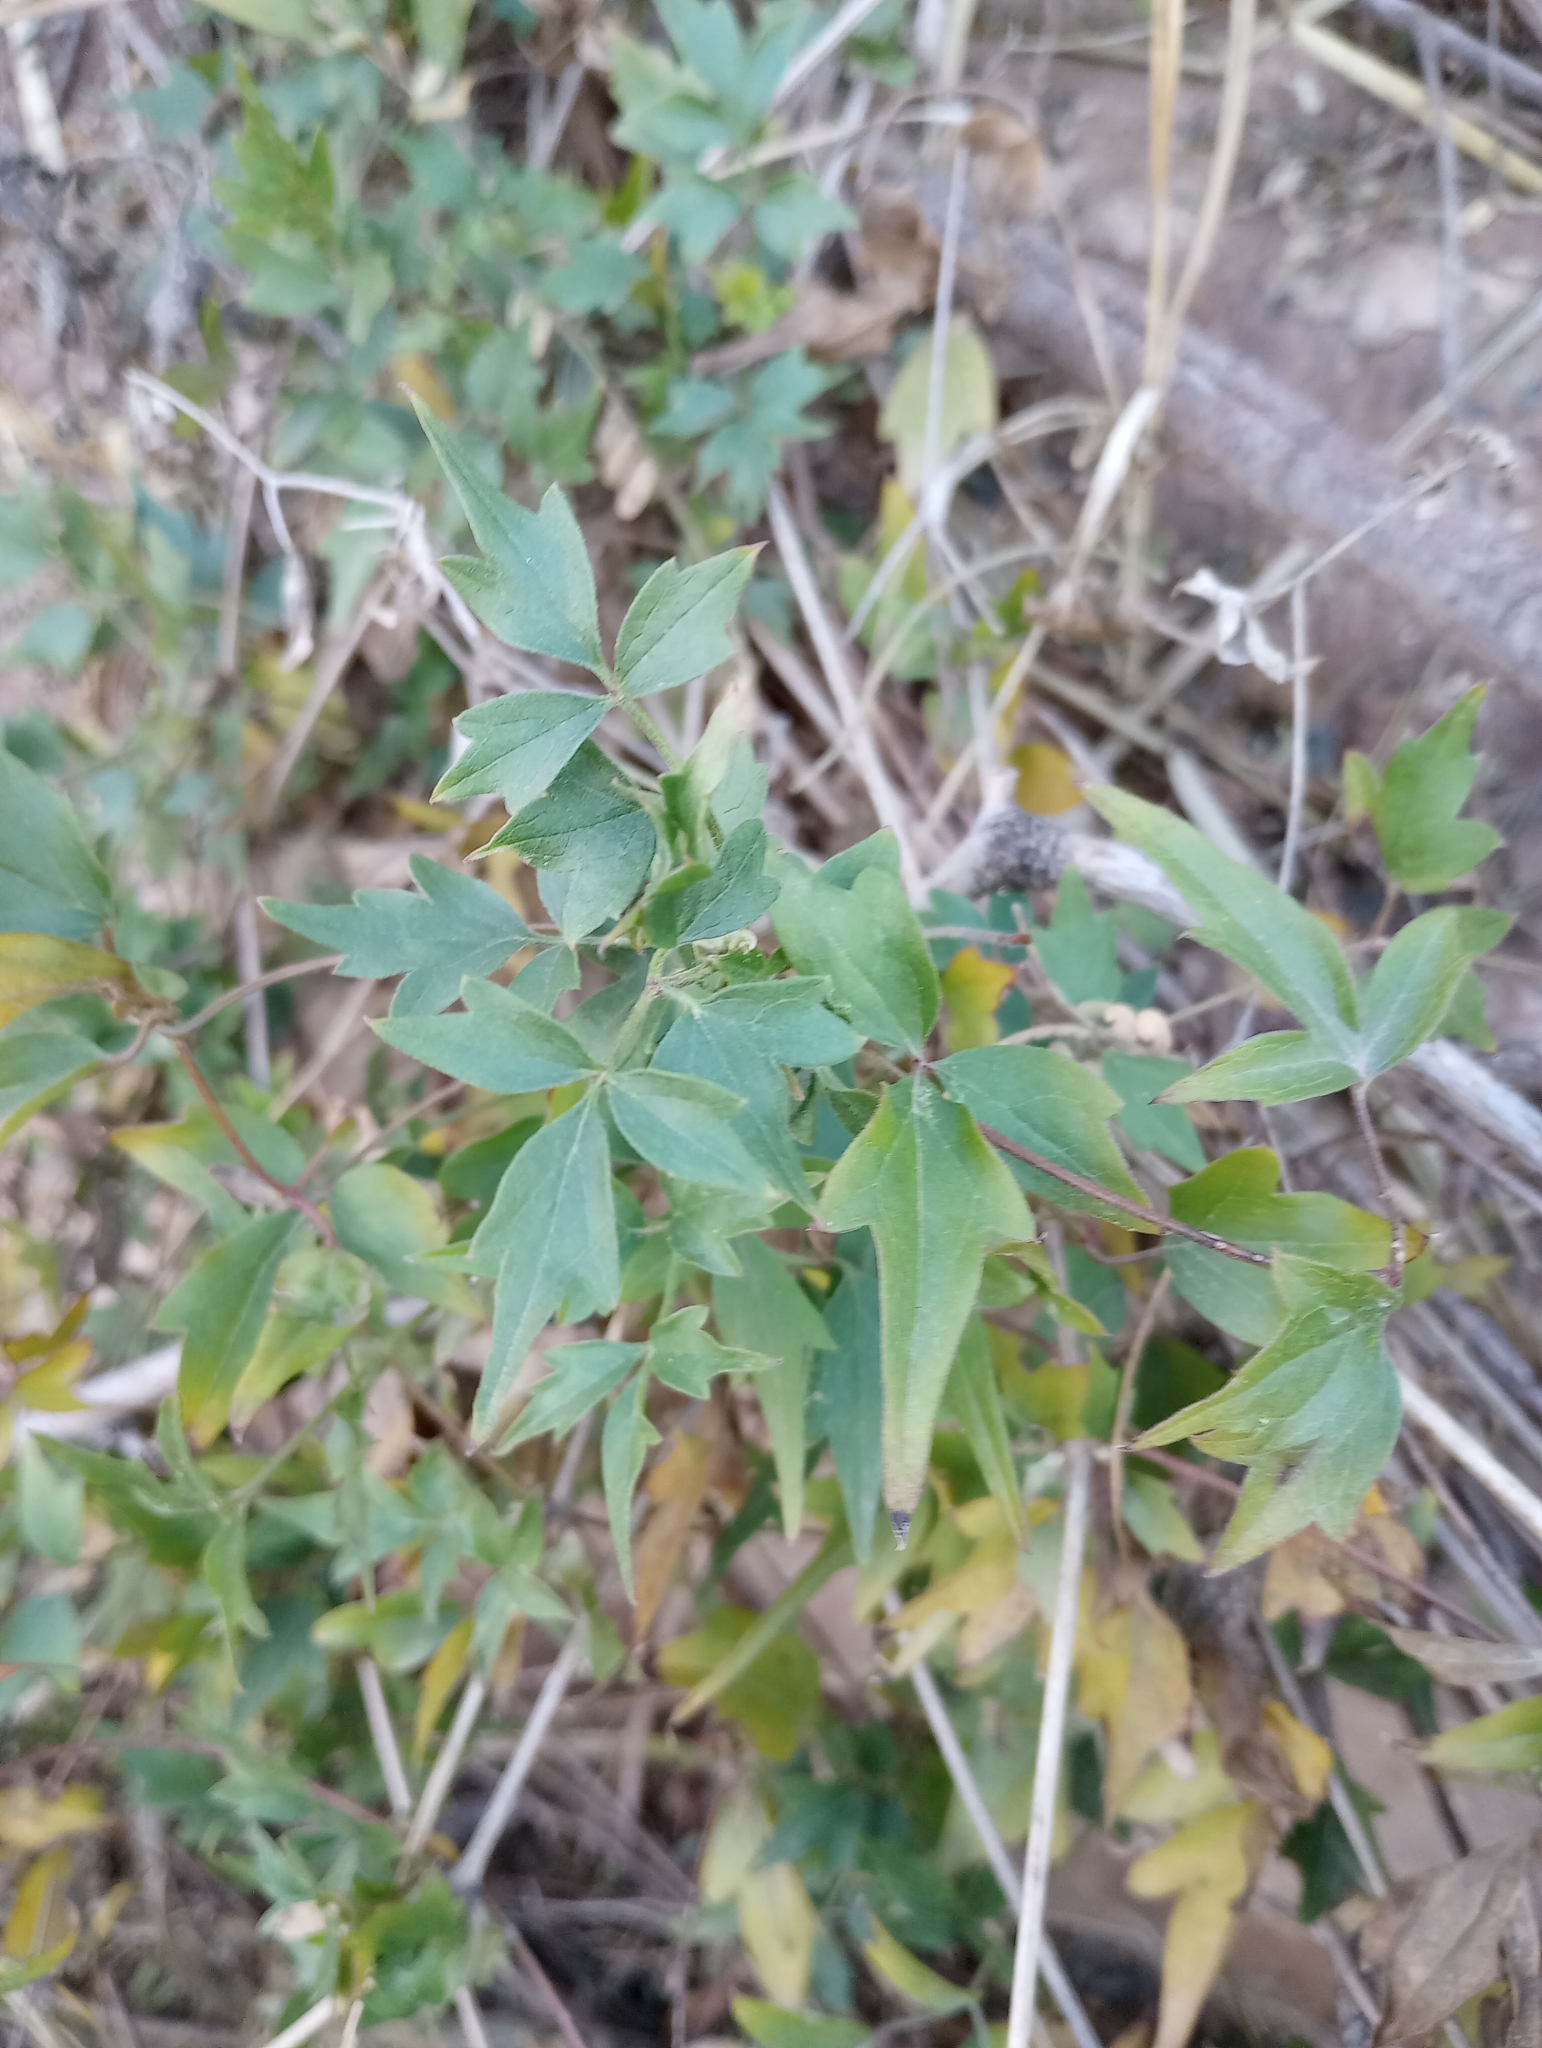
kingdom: Plantae
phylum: Tracheophyta
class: Magnoliopsida
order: Ranunculales
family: Ranunculaceae
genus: Clematis
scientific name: Clematis drummondii
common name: Texas virgin's bower
